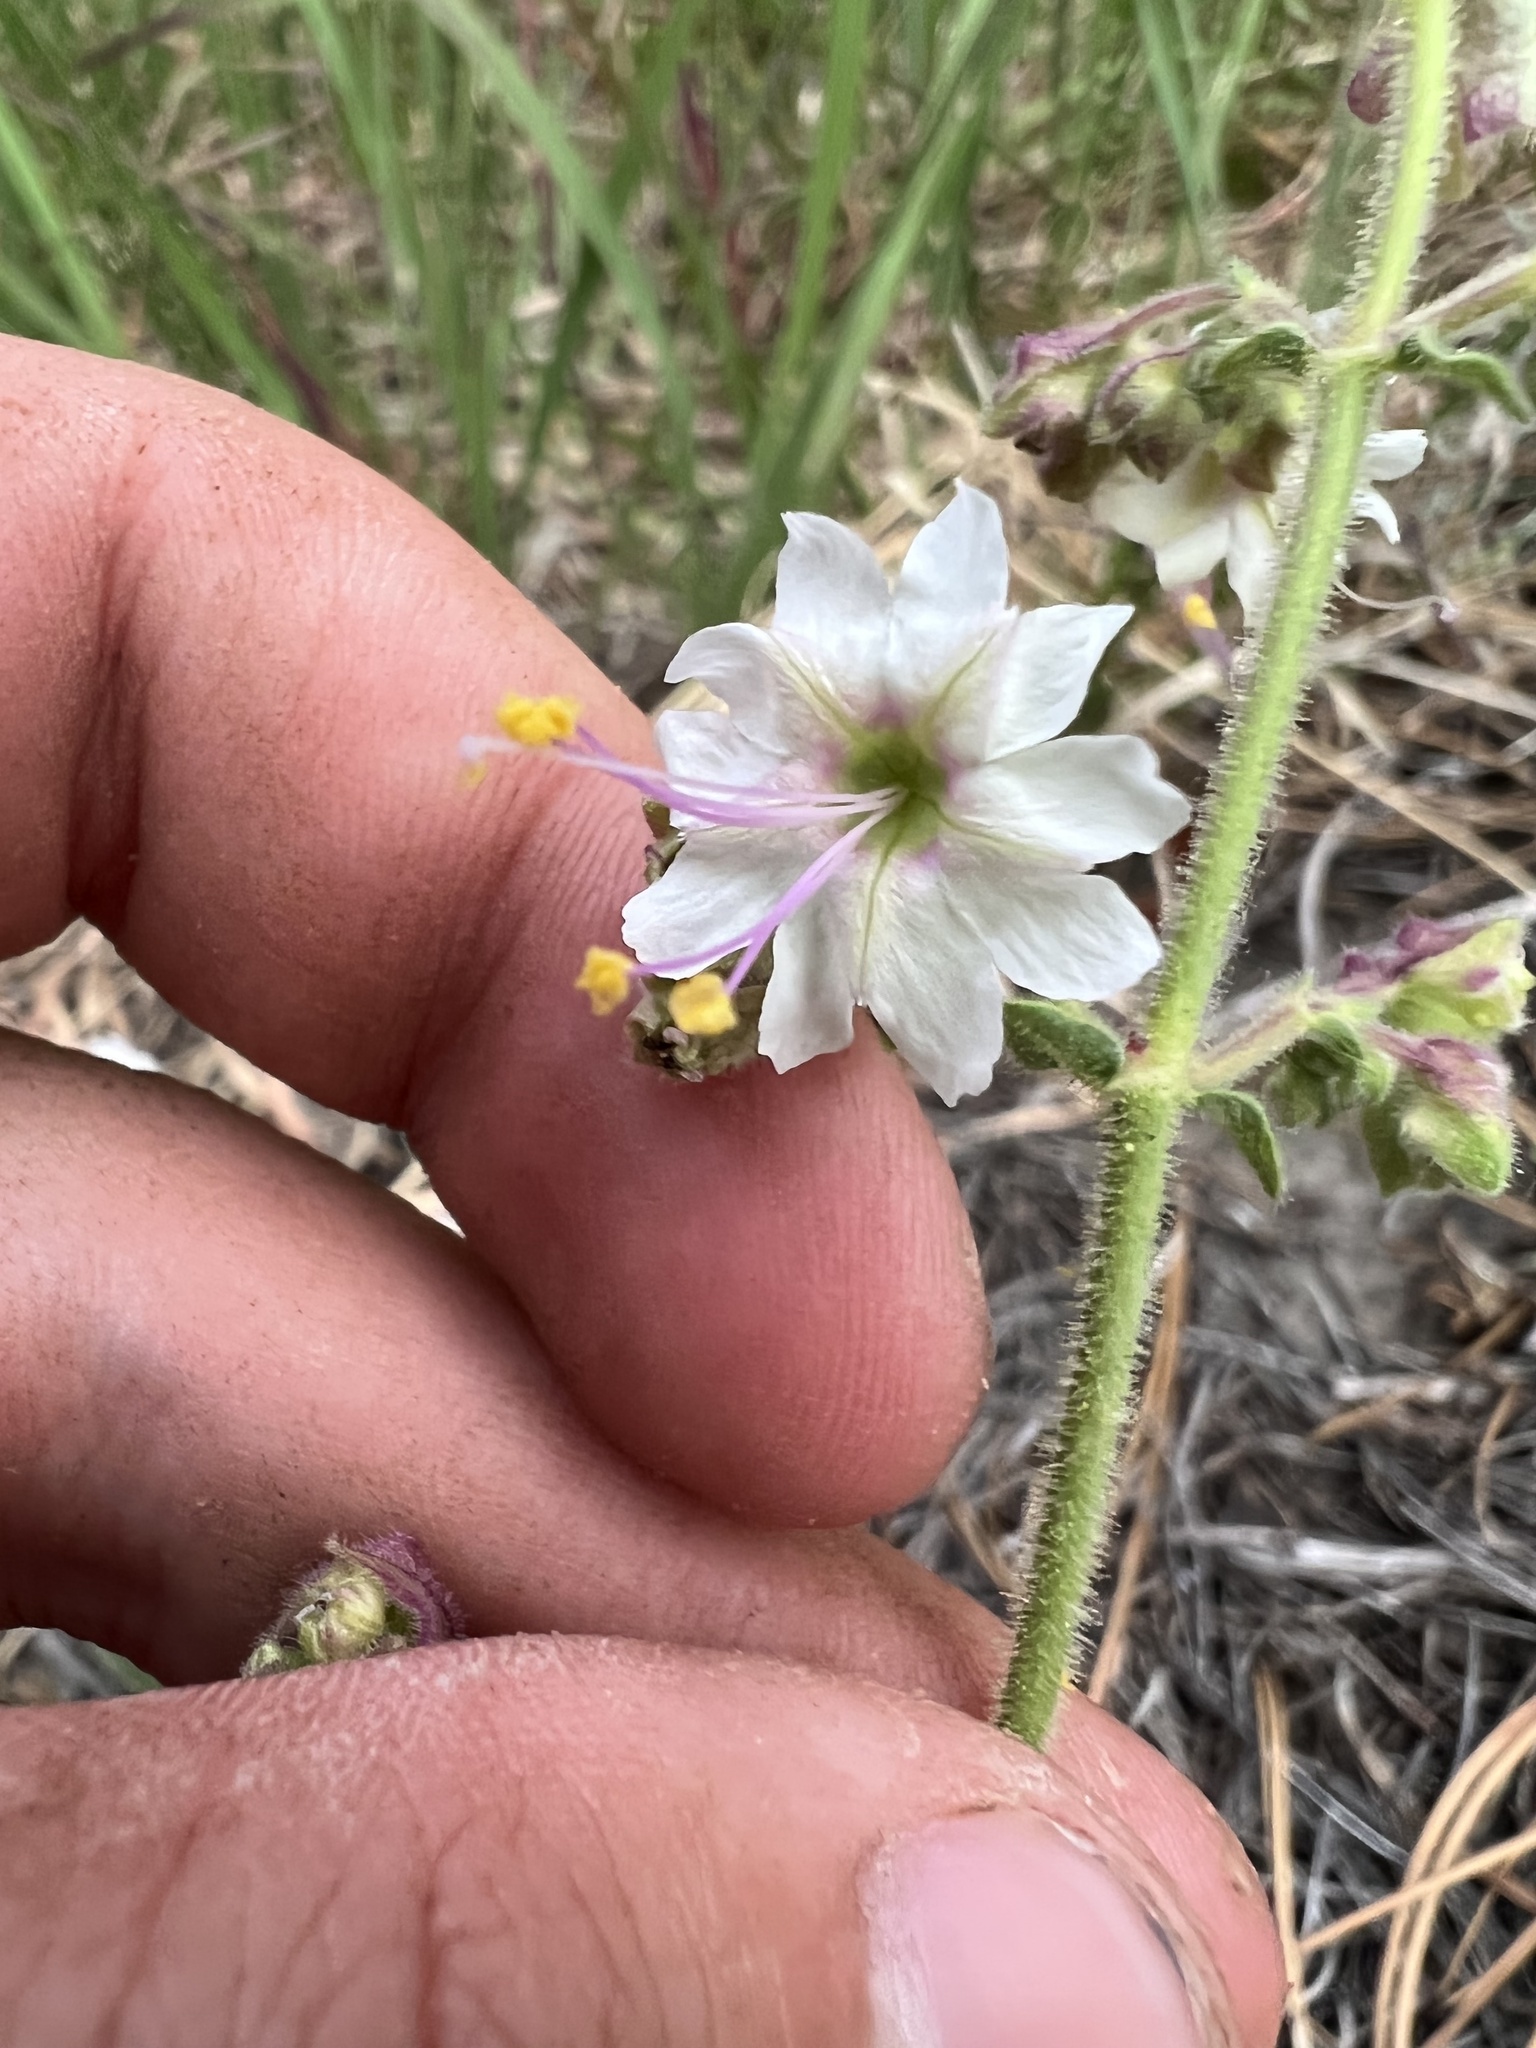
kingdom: Plantae
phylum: Tracheophyta
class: Magnoliopsida
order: Caryophyllales
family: Nyctaginaceae
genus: Mirabilis
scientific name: Mirabilis linearis
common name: Linear-leaved four-o'clock
